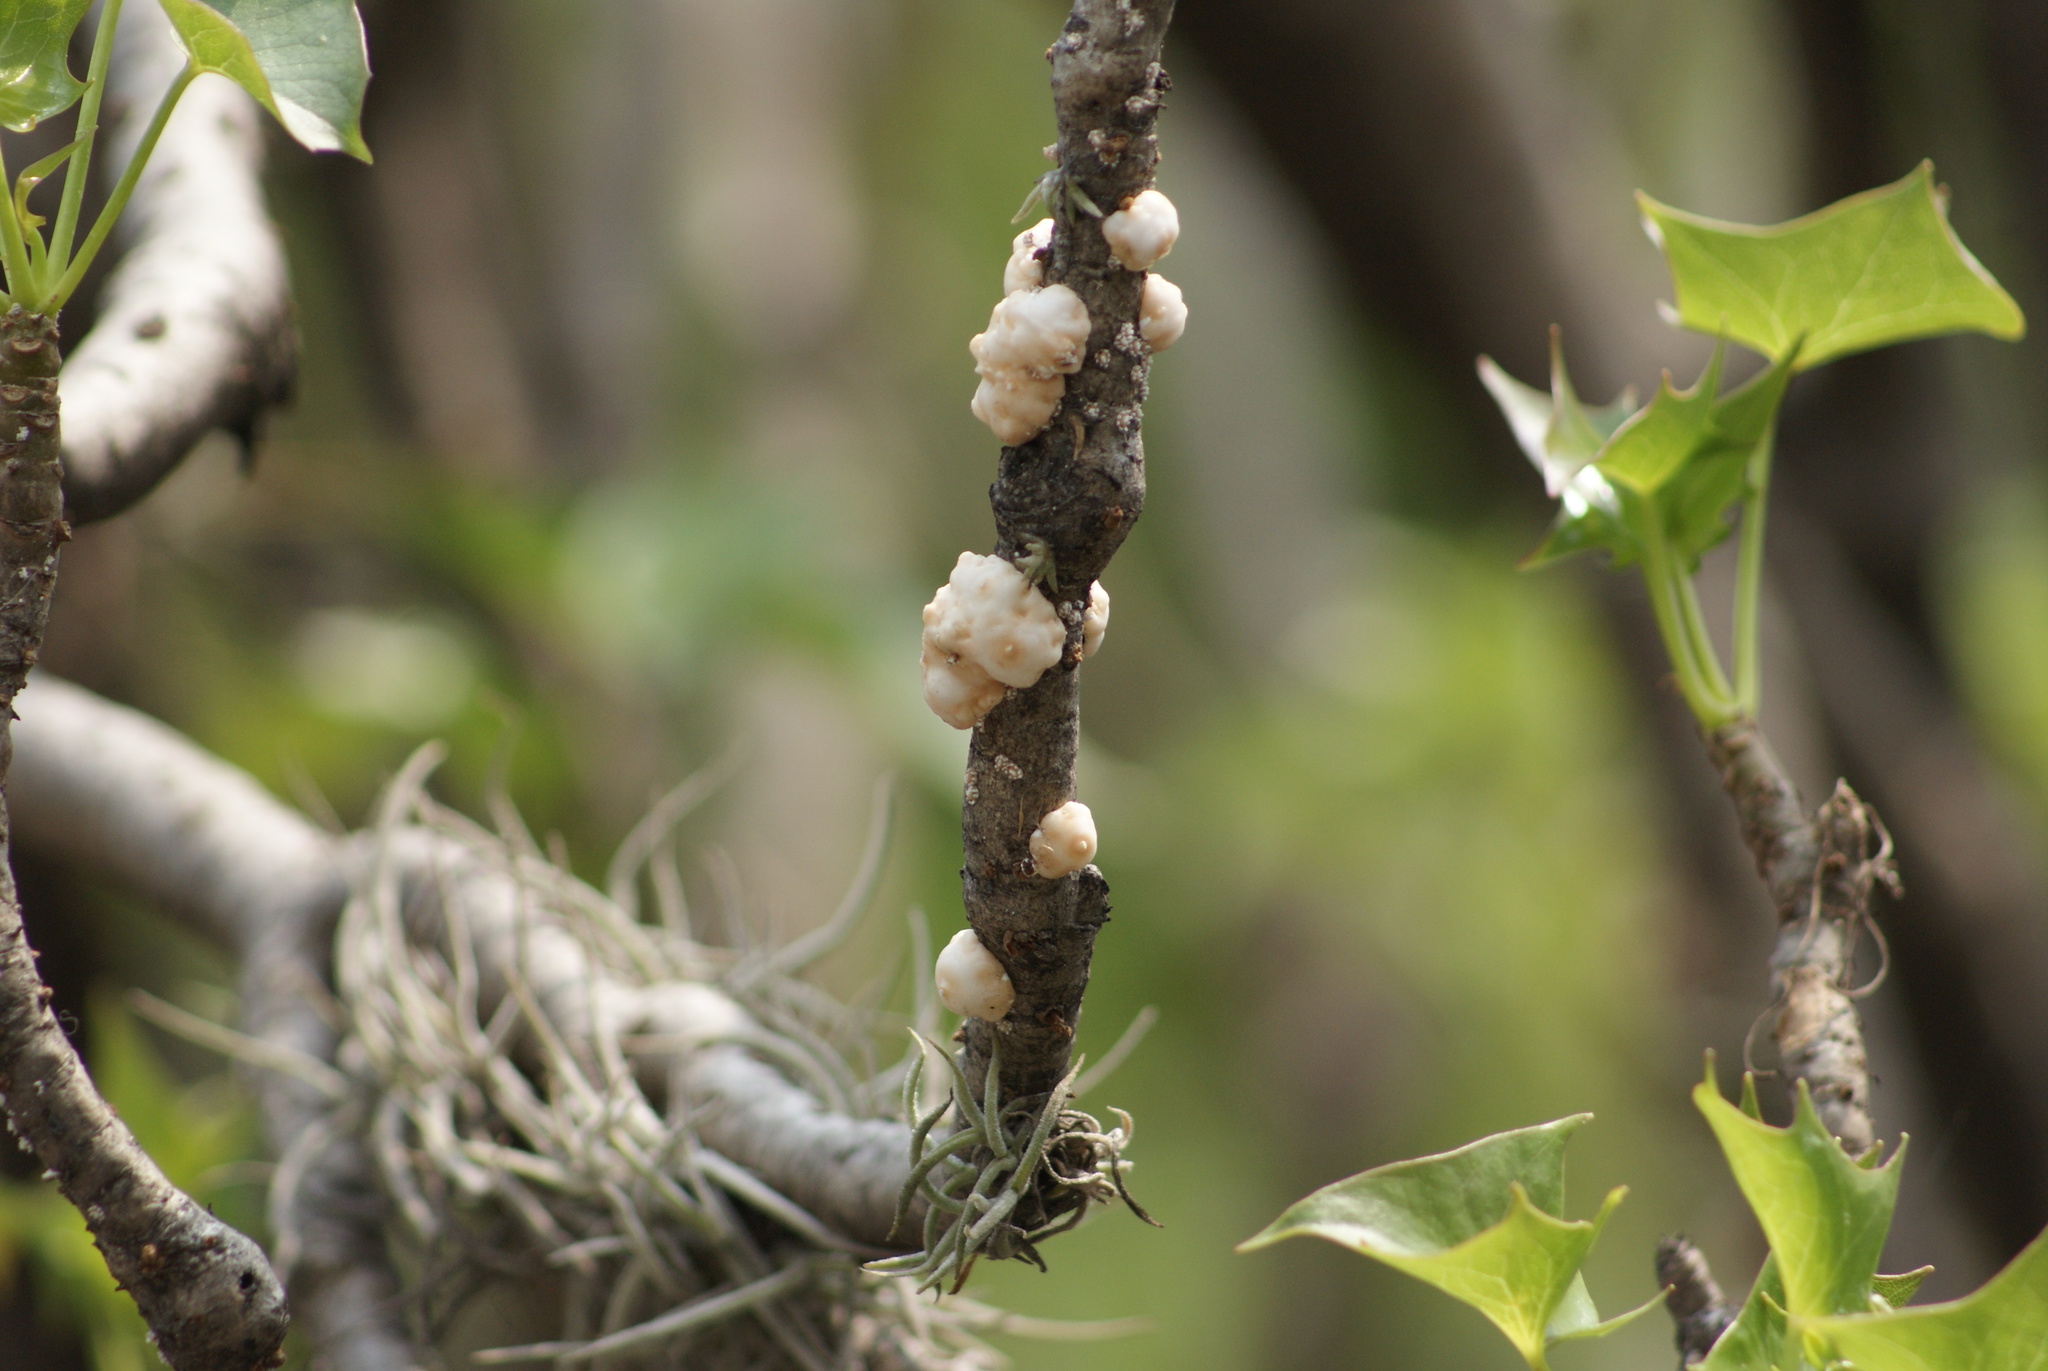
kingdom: Animalia
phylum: Arthropoda
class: Insecta
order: Hemiptera
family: Coccidae
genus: Ceroplastes
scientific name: Ceroplastes albolineatus
